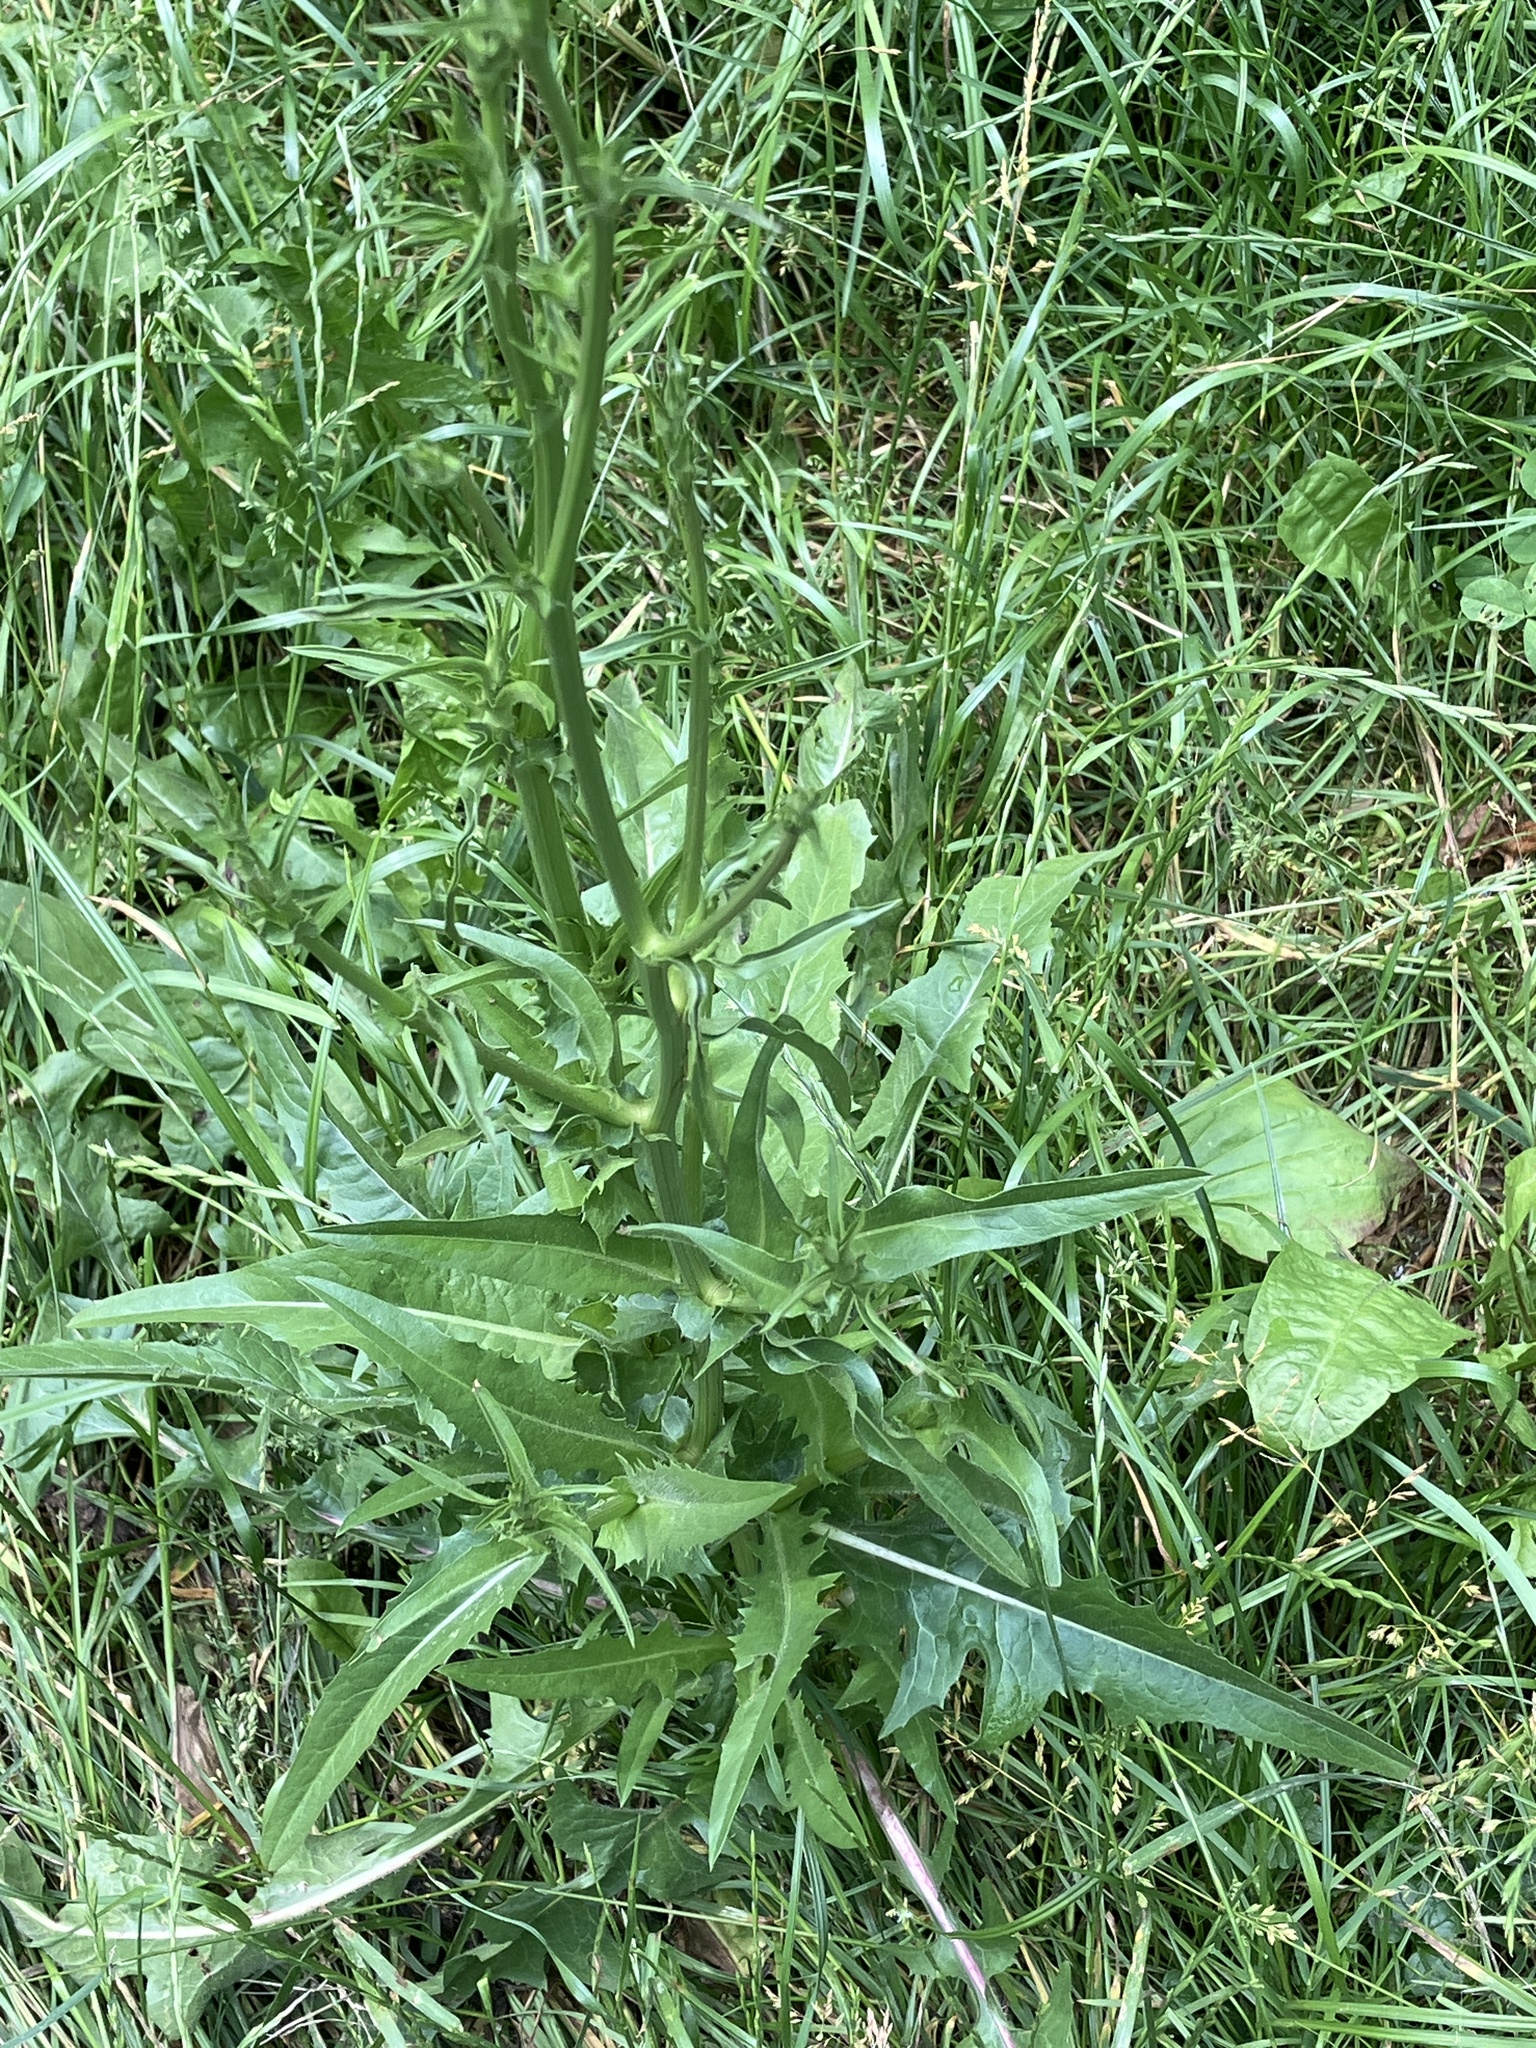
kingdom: Plantae
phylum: Tracheophyta
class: Magnoliopsida
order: Asterales
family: Asteraceae
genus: Cichorium
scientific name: Cichorium intybus
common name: Chicory
